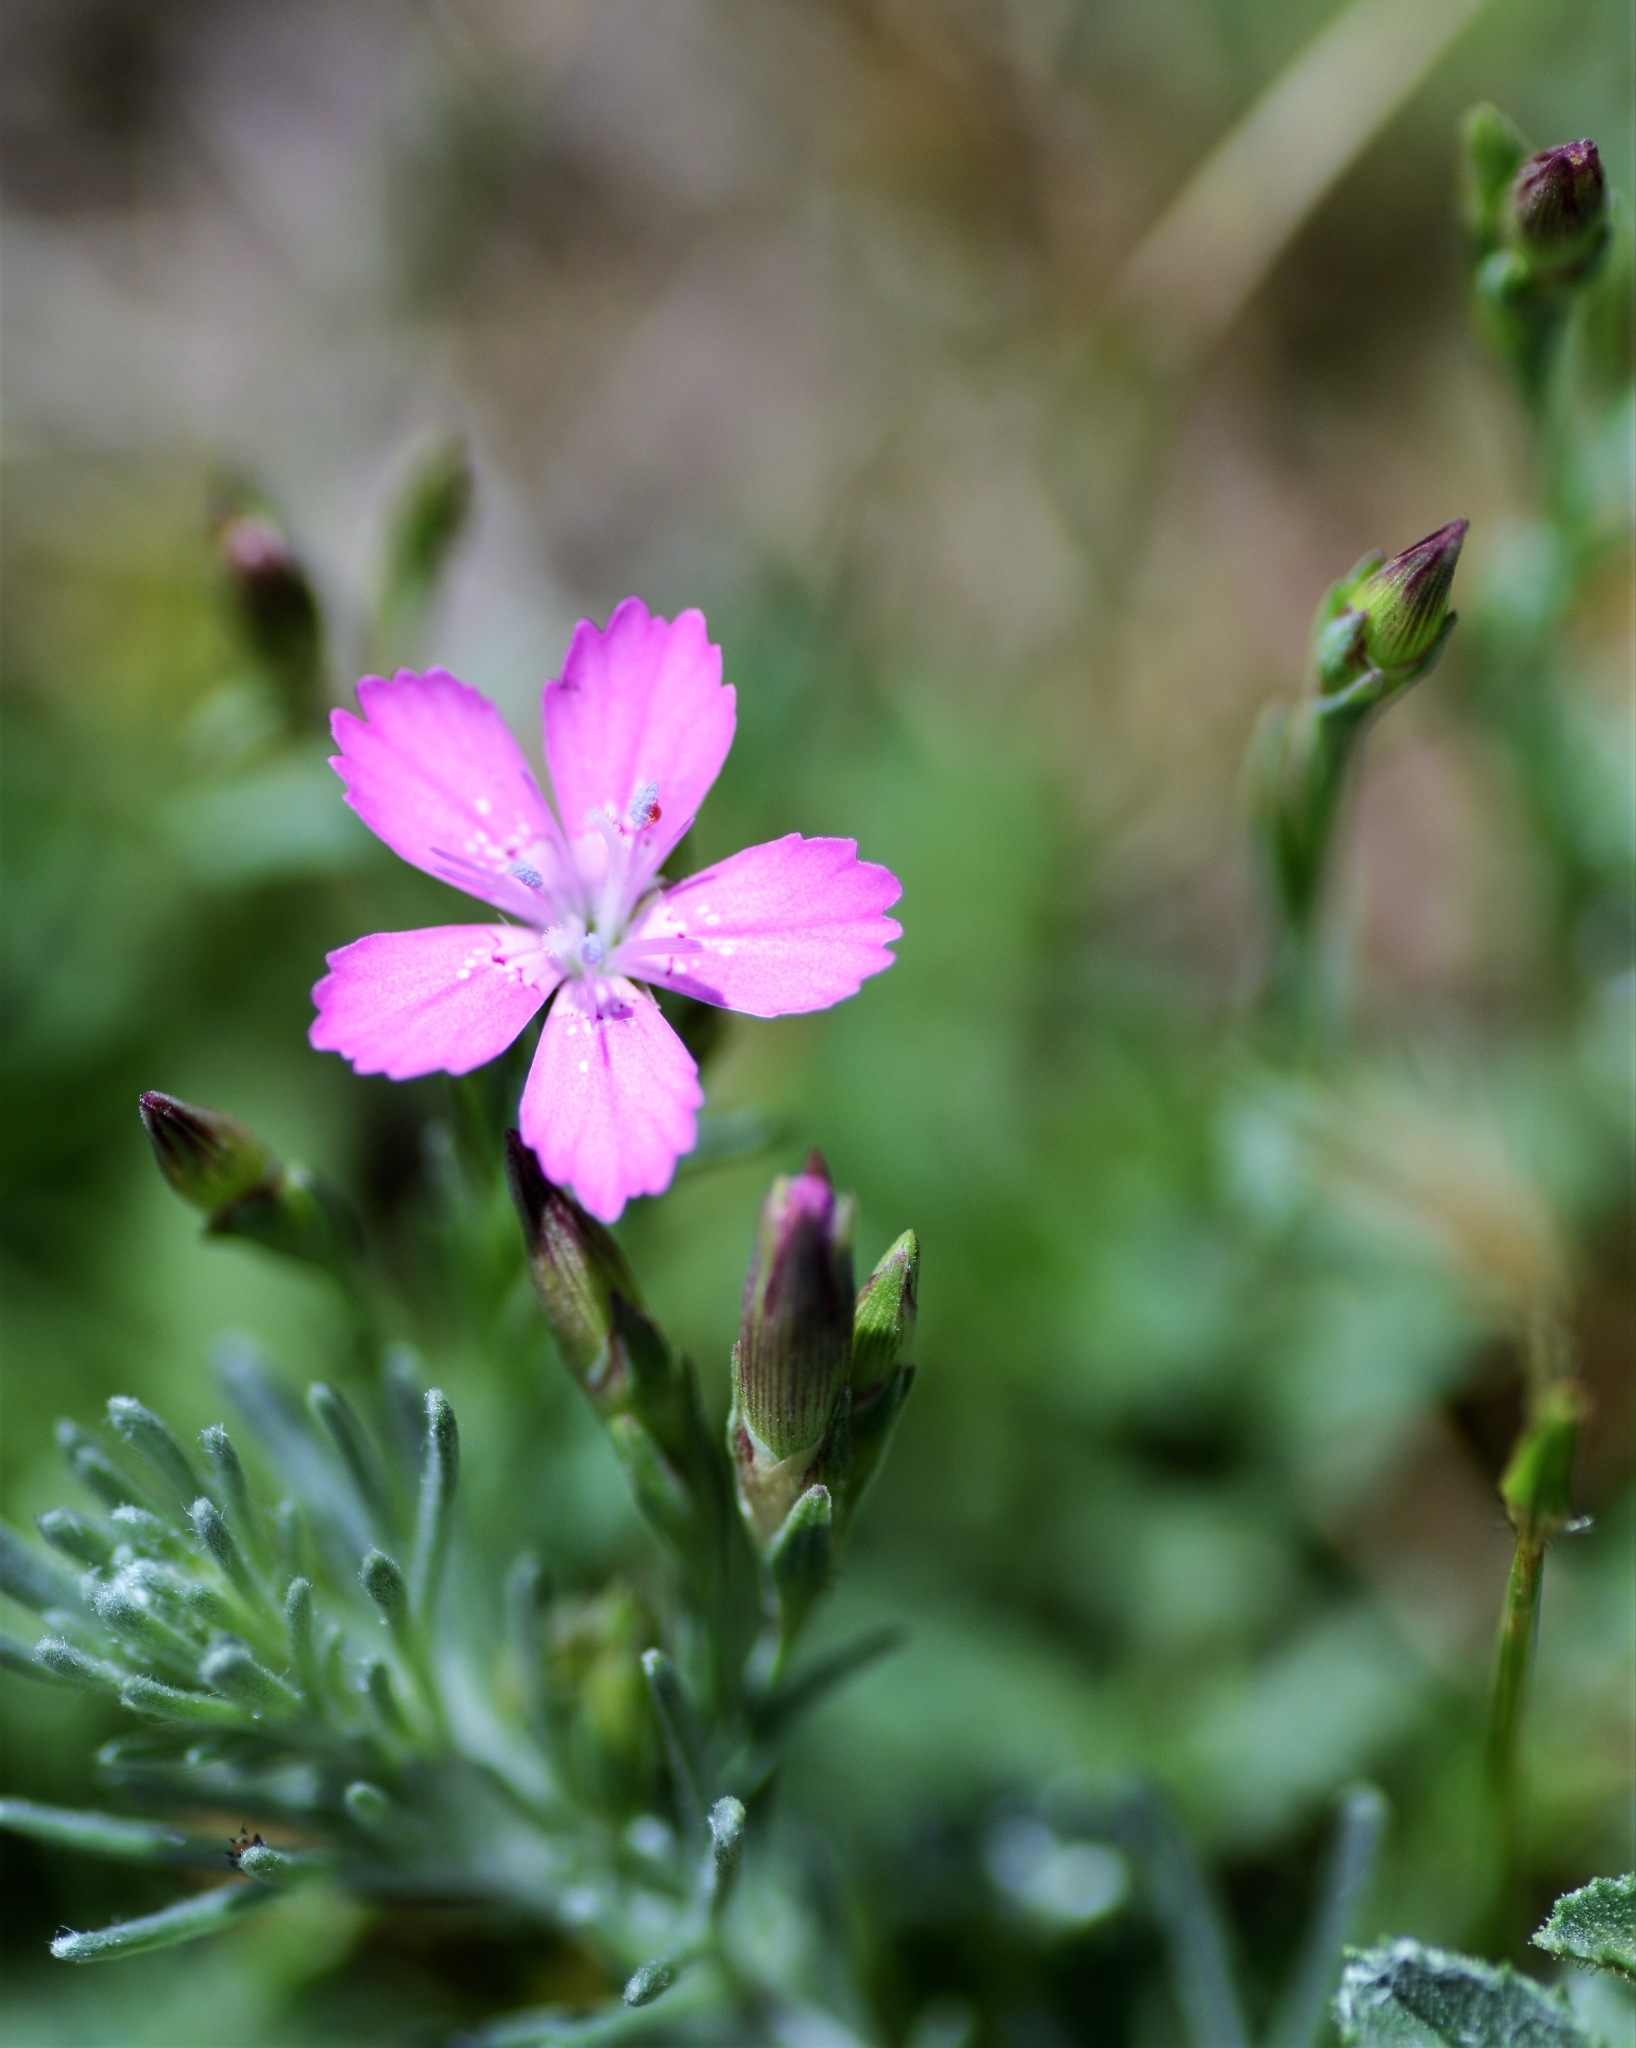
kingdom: Plantae
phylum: Tracheophyta
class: Magnoliopsida
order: Caryophyllales
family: Caryophyllaceae
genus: Dianthus
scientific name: Dianthus deltoides
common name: Maiden pink
